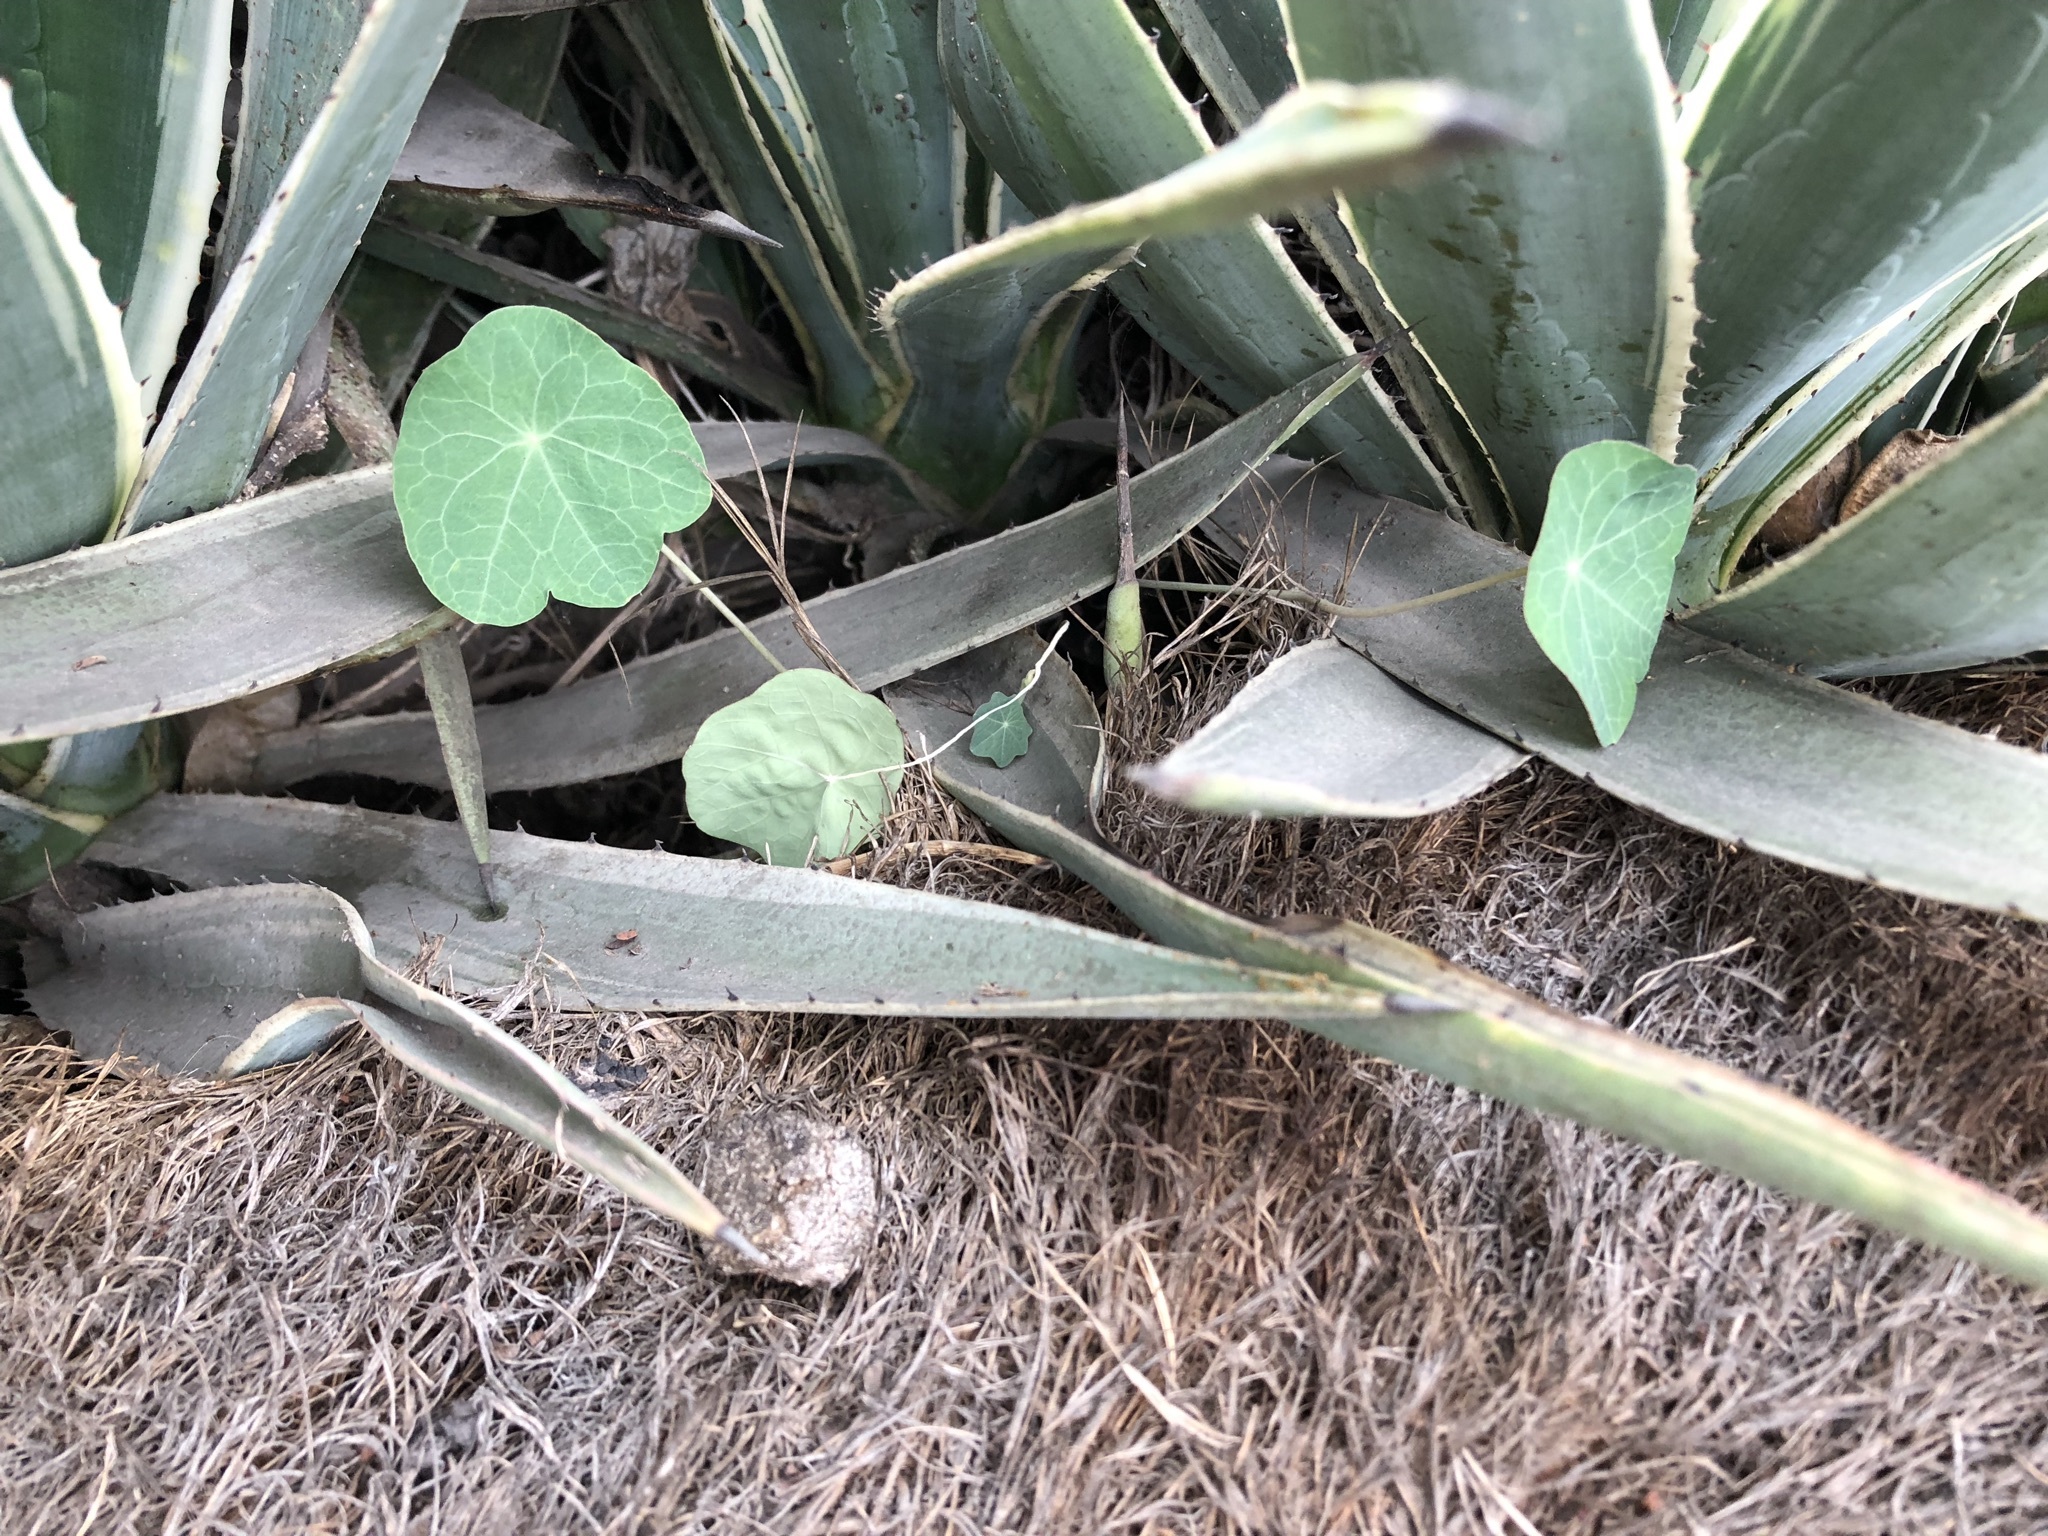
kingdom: Plantae
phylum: Tracheophyta
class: Magnoliopsida
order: Brassicales
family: Tropaeolaceae
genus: Tropaeolum
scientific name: Tropaeolum majus
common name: Nasturtium
